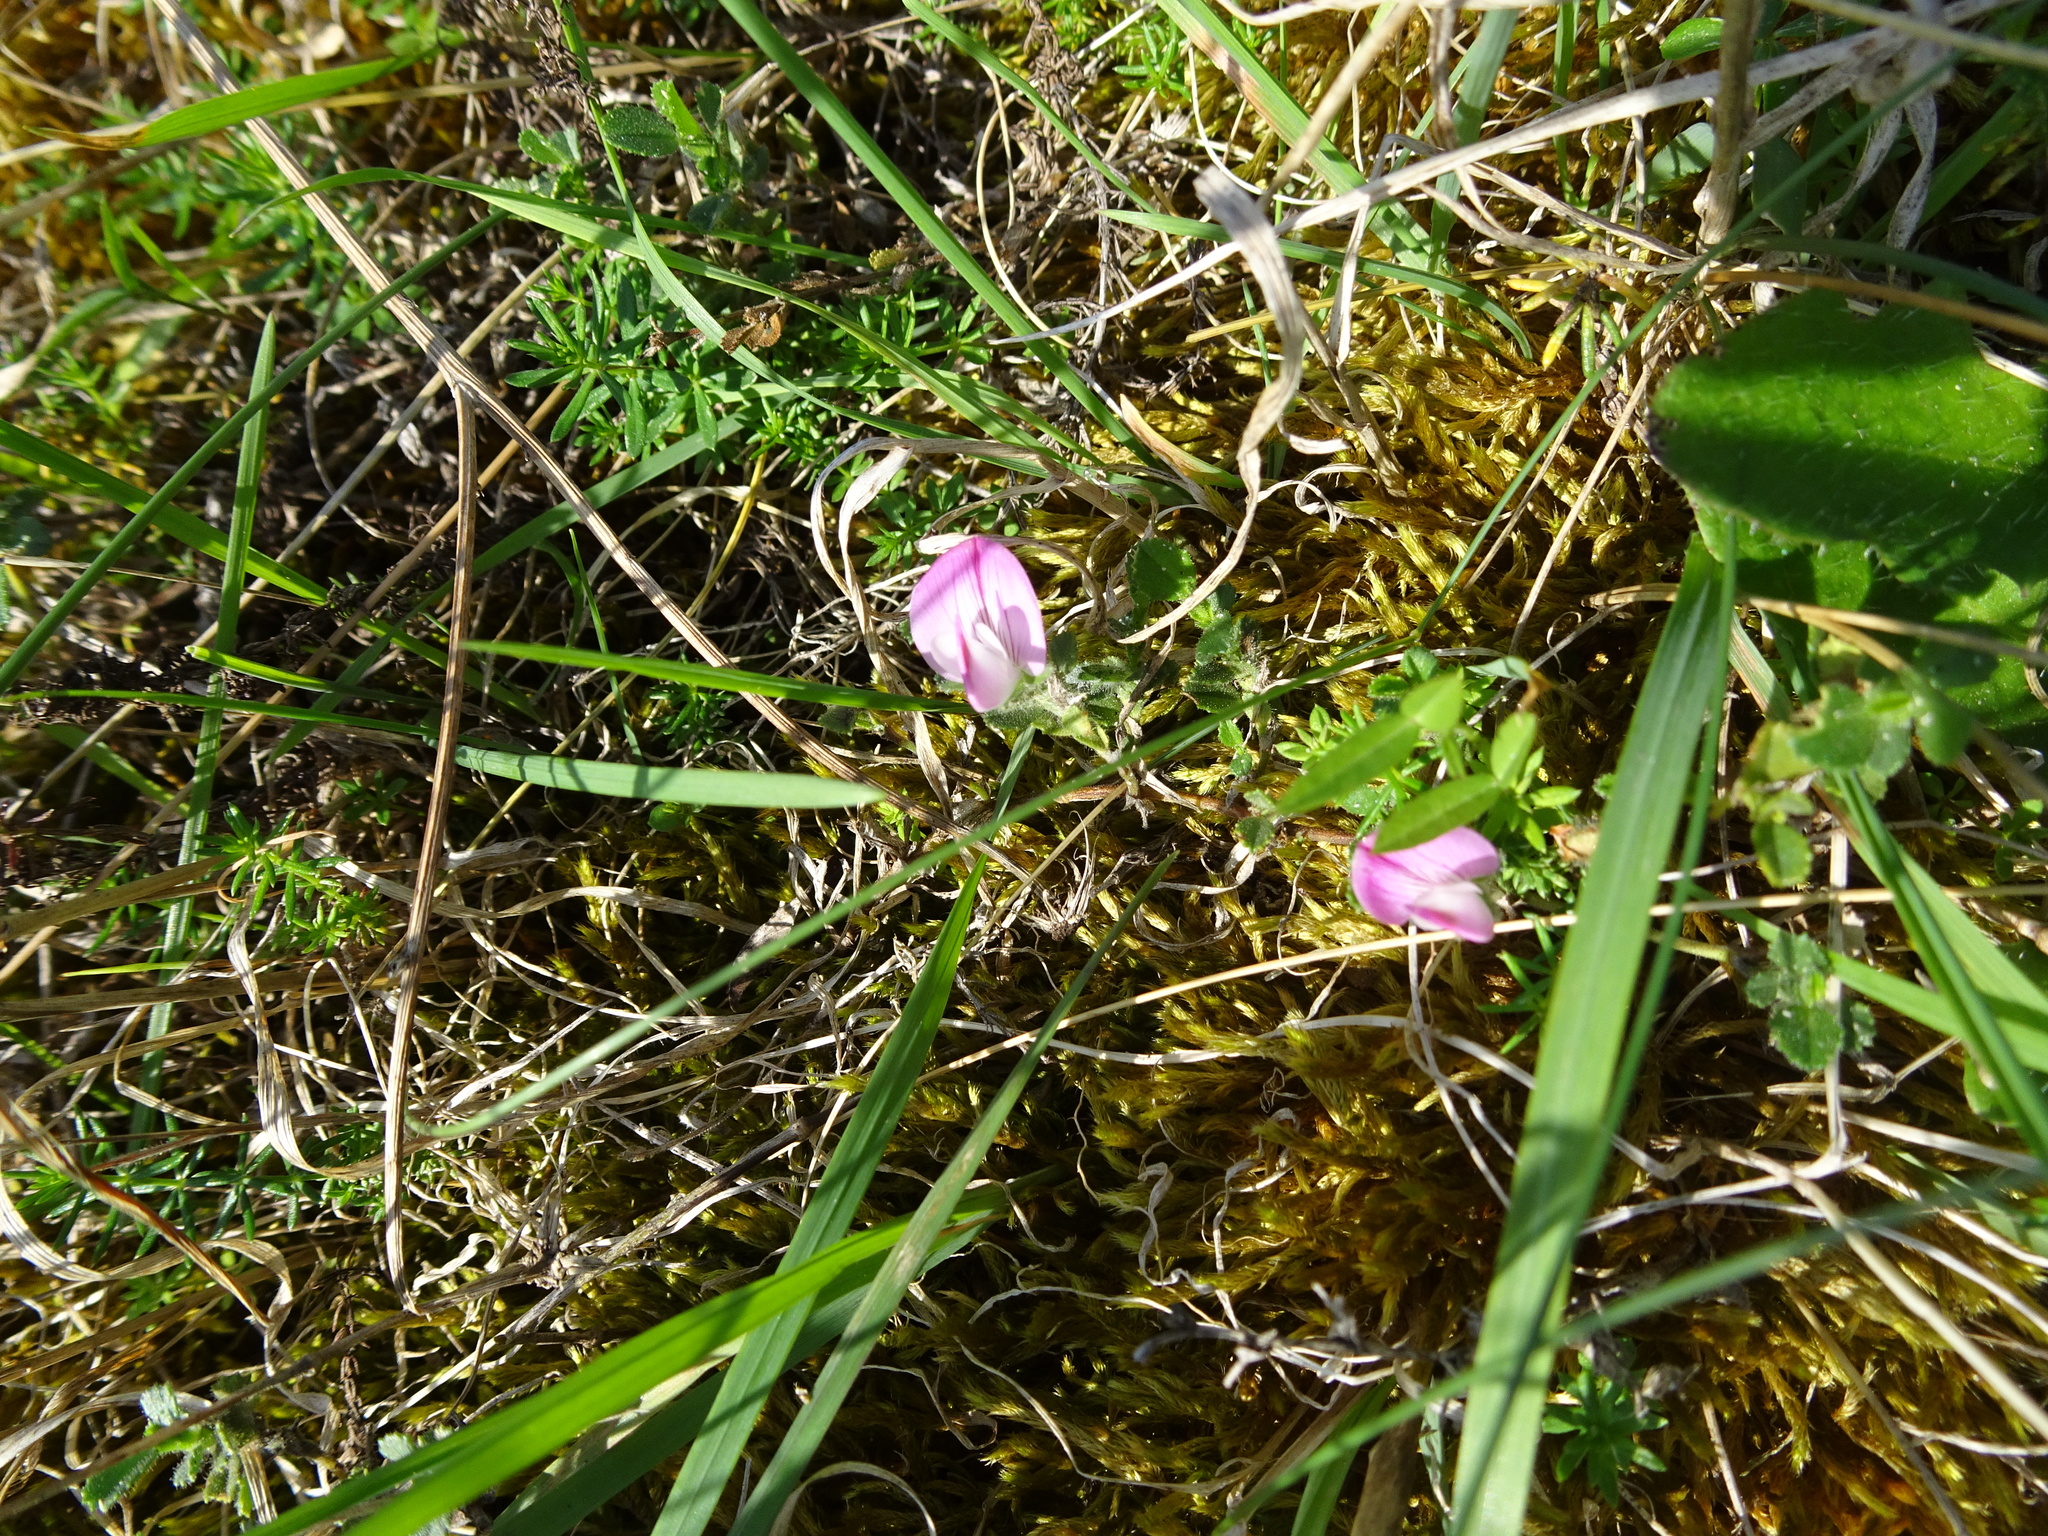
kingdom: Plantae
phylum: Tracheophyta
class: Magnoliopsida
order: Fabales
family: Fabaceae
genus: Ononis
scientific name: Ononis spinosa
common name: Spiny restharrow
